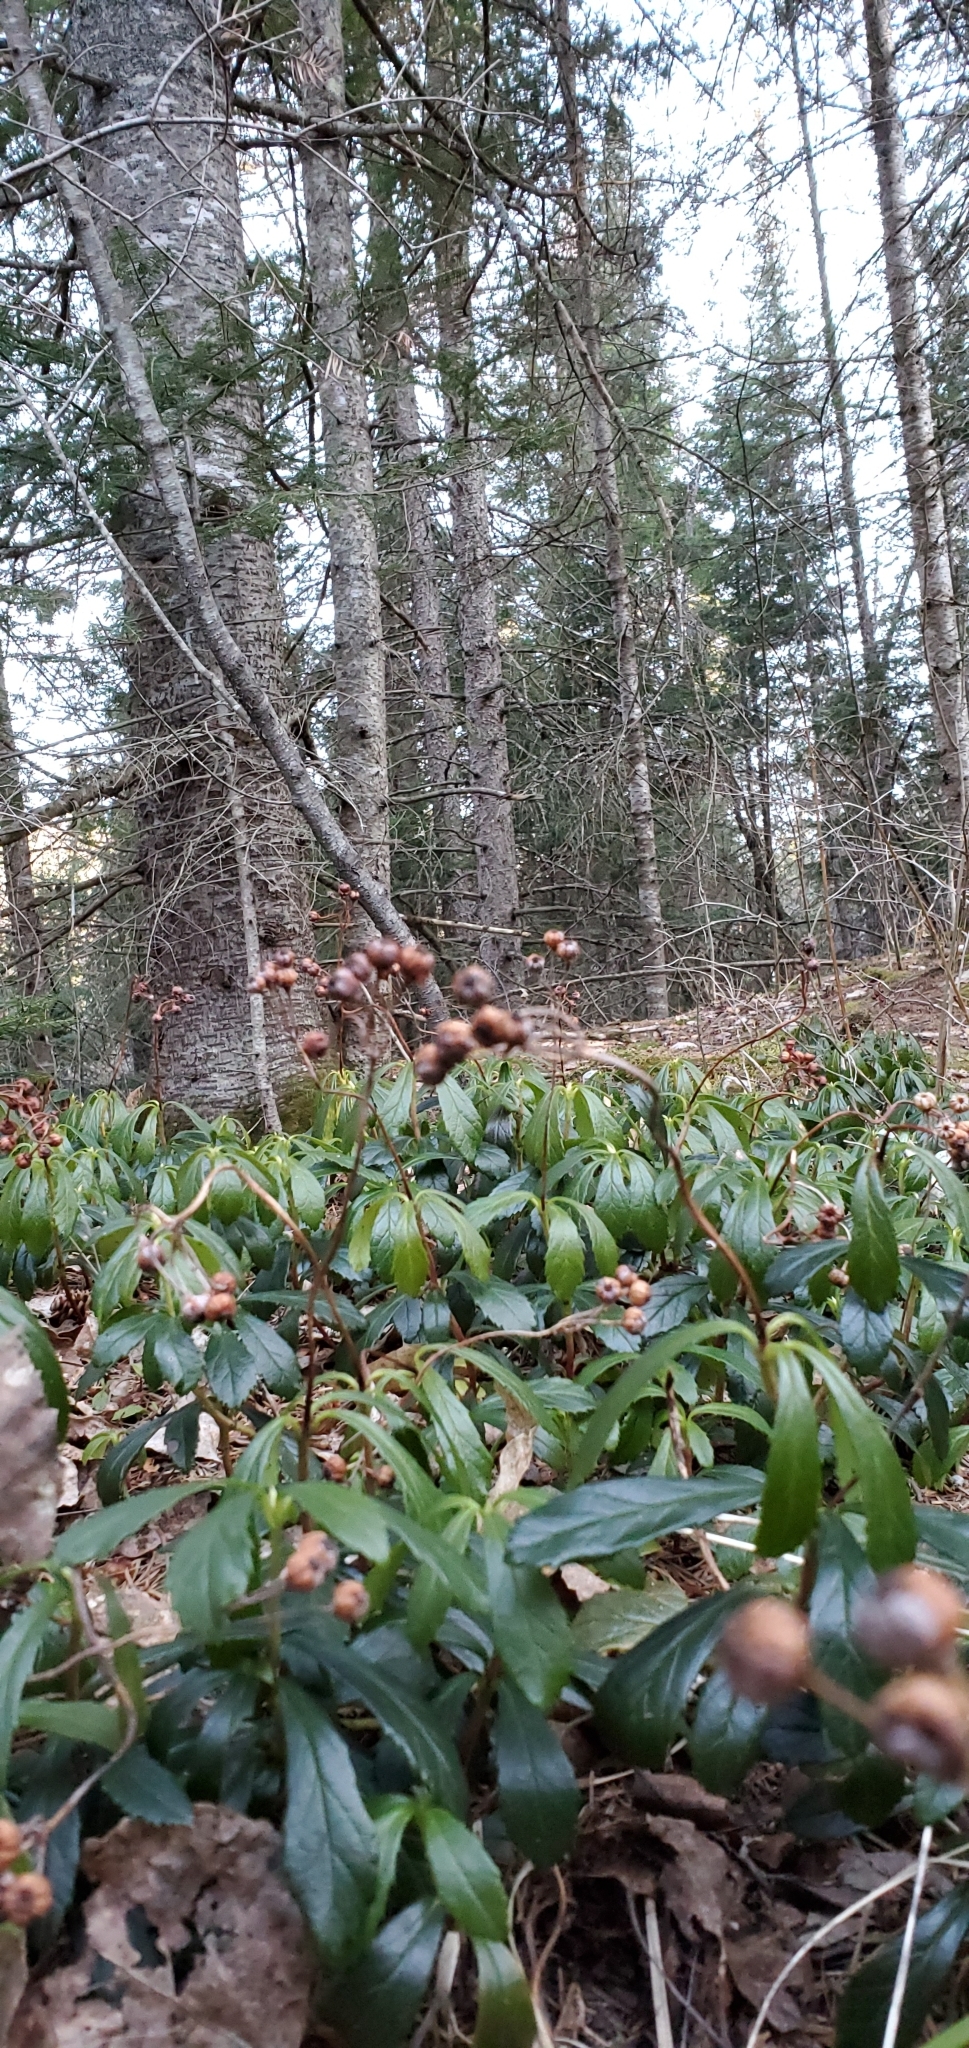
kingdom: Plantae
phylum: Tracheophyta
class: Magnoliopsida
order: Ericales
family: Ericaceae
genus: Chimaphila
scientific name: Chimaphila umbellata
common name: Pipsissewa
